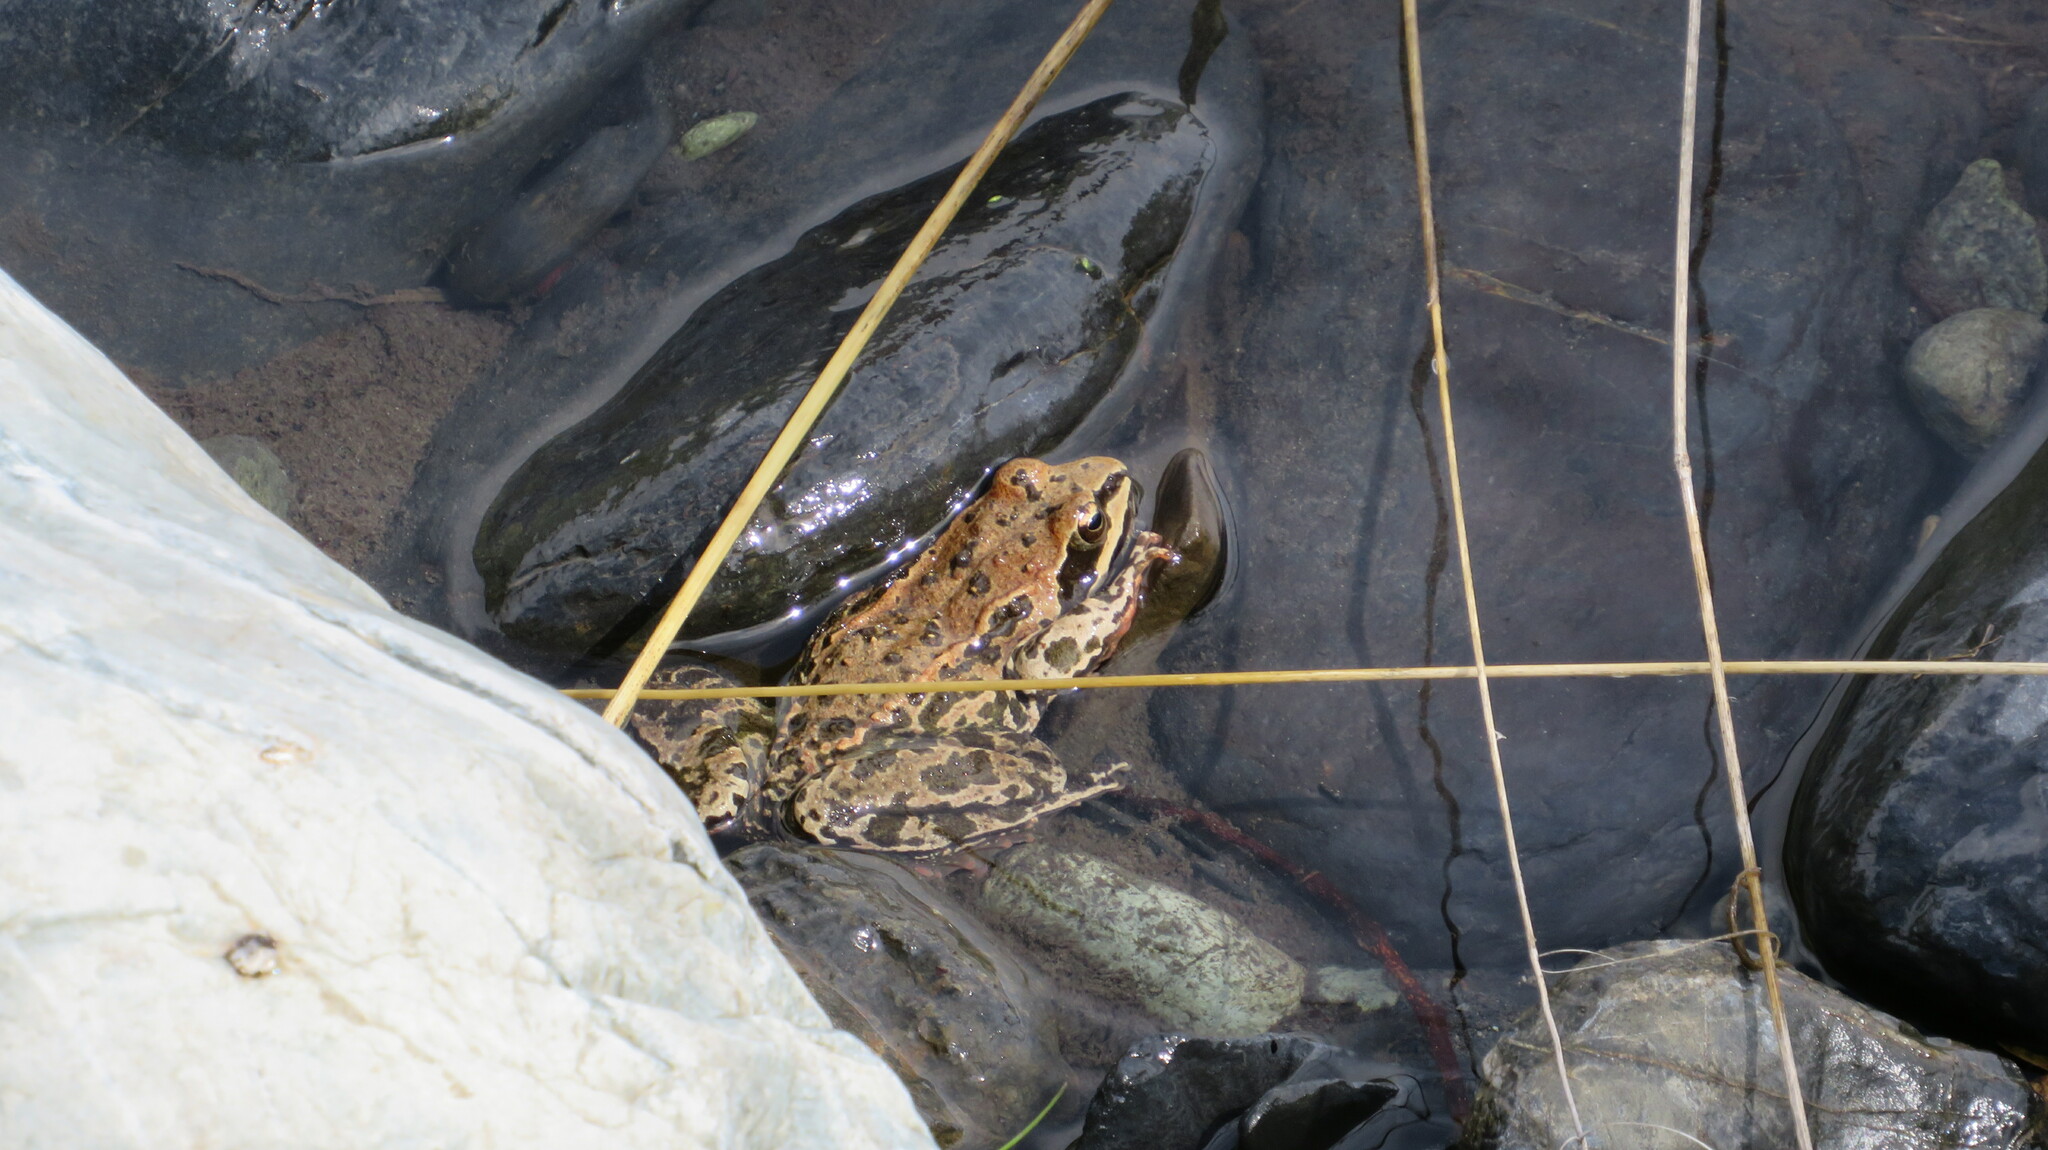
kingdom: Animalia
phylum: Chordata
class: Amphibia
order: Anura
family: Ranidae
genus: Rana
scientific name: Rana macrocnemis
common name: Banded frog
